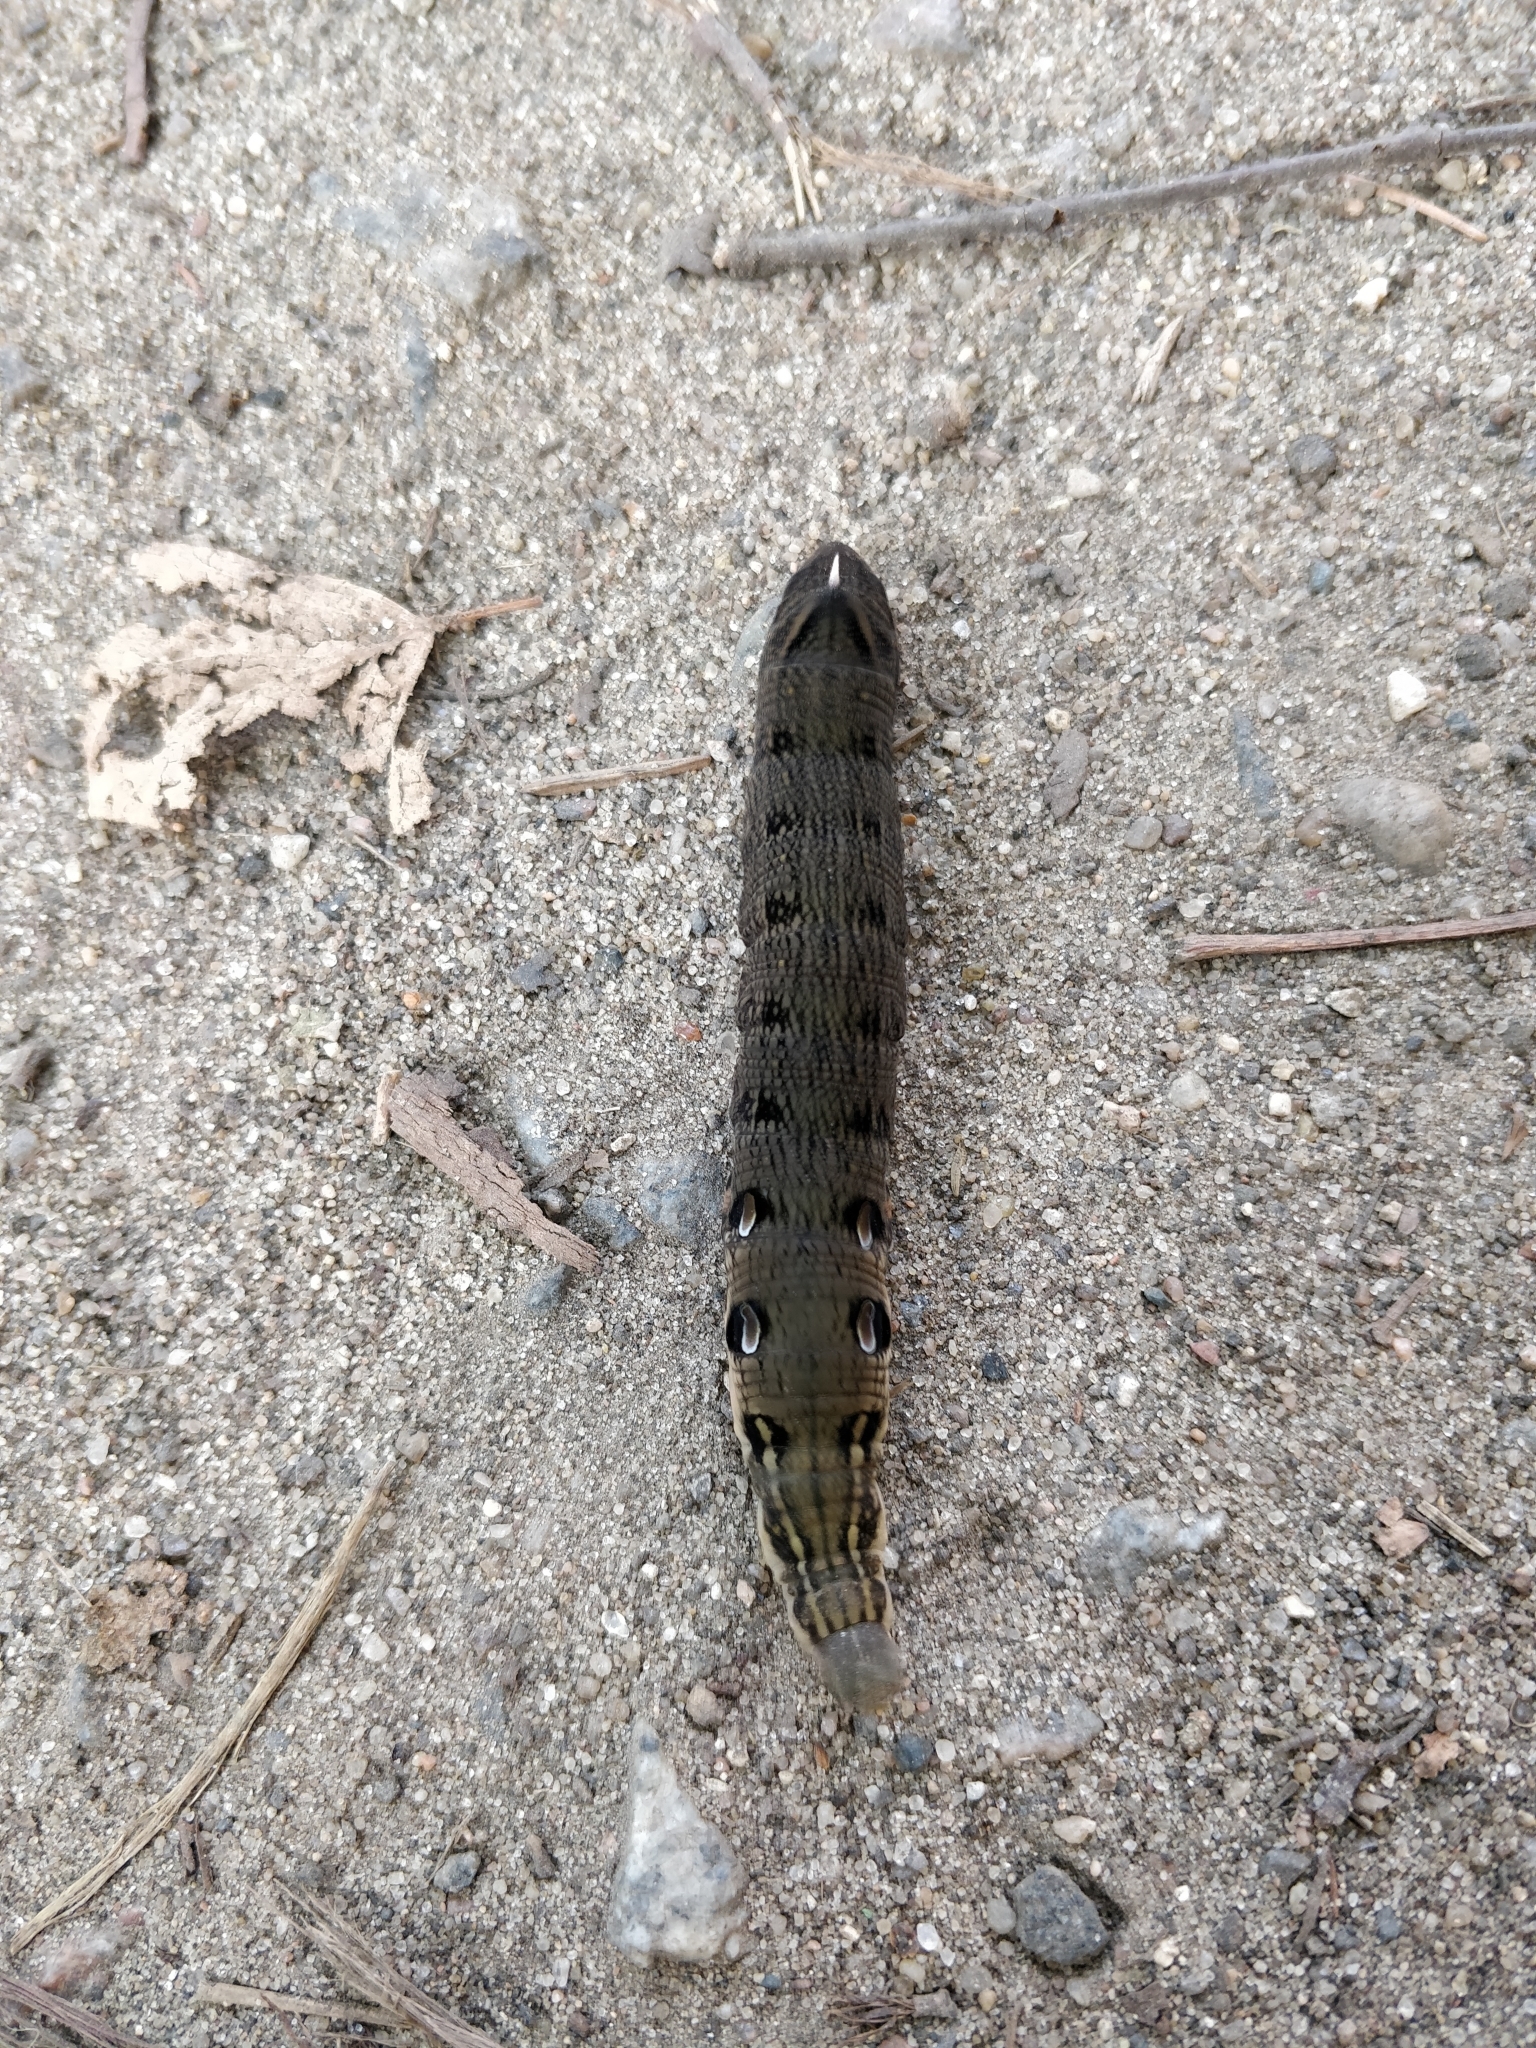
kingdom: Animalia
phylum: Arthropoda
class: Insecta
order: Lepidoptera
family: Sphingidae
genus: Deilephila
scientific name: Deilephila elpenor
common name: Elephant hawk-moth
